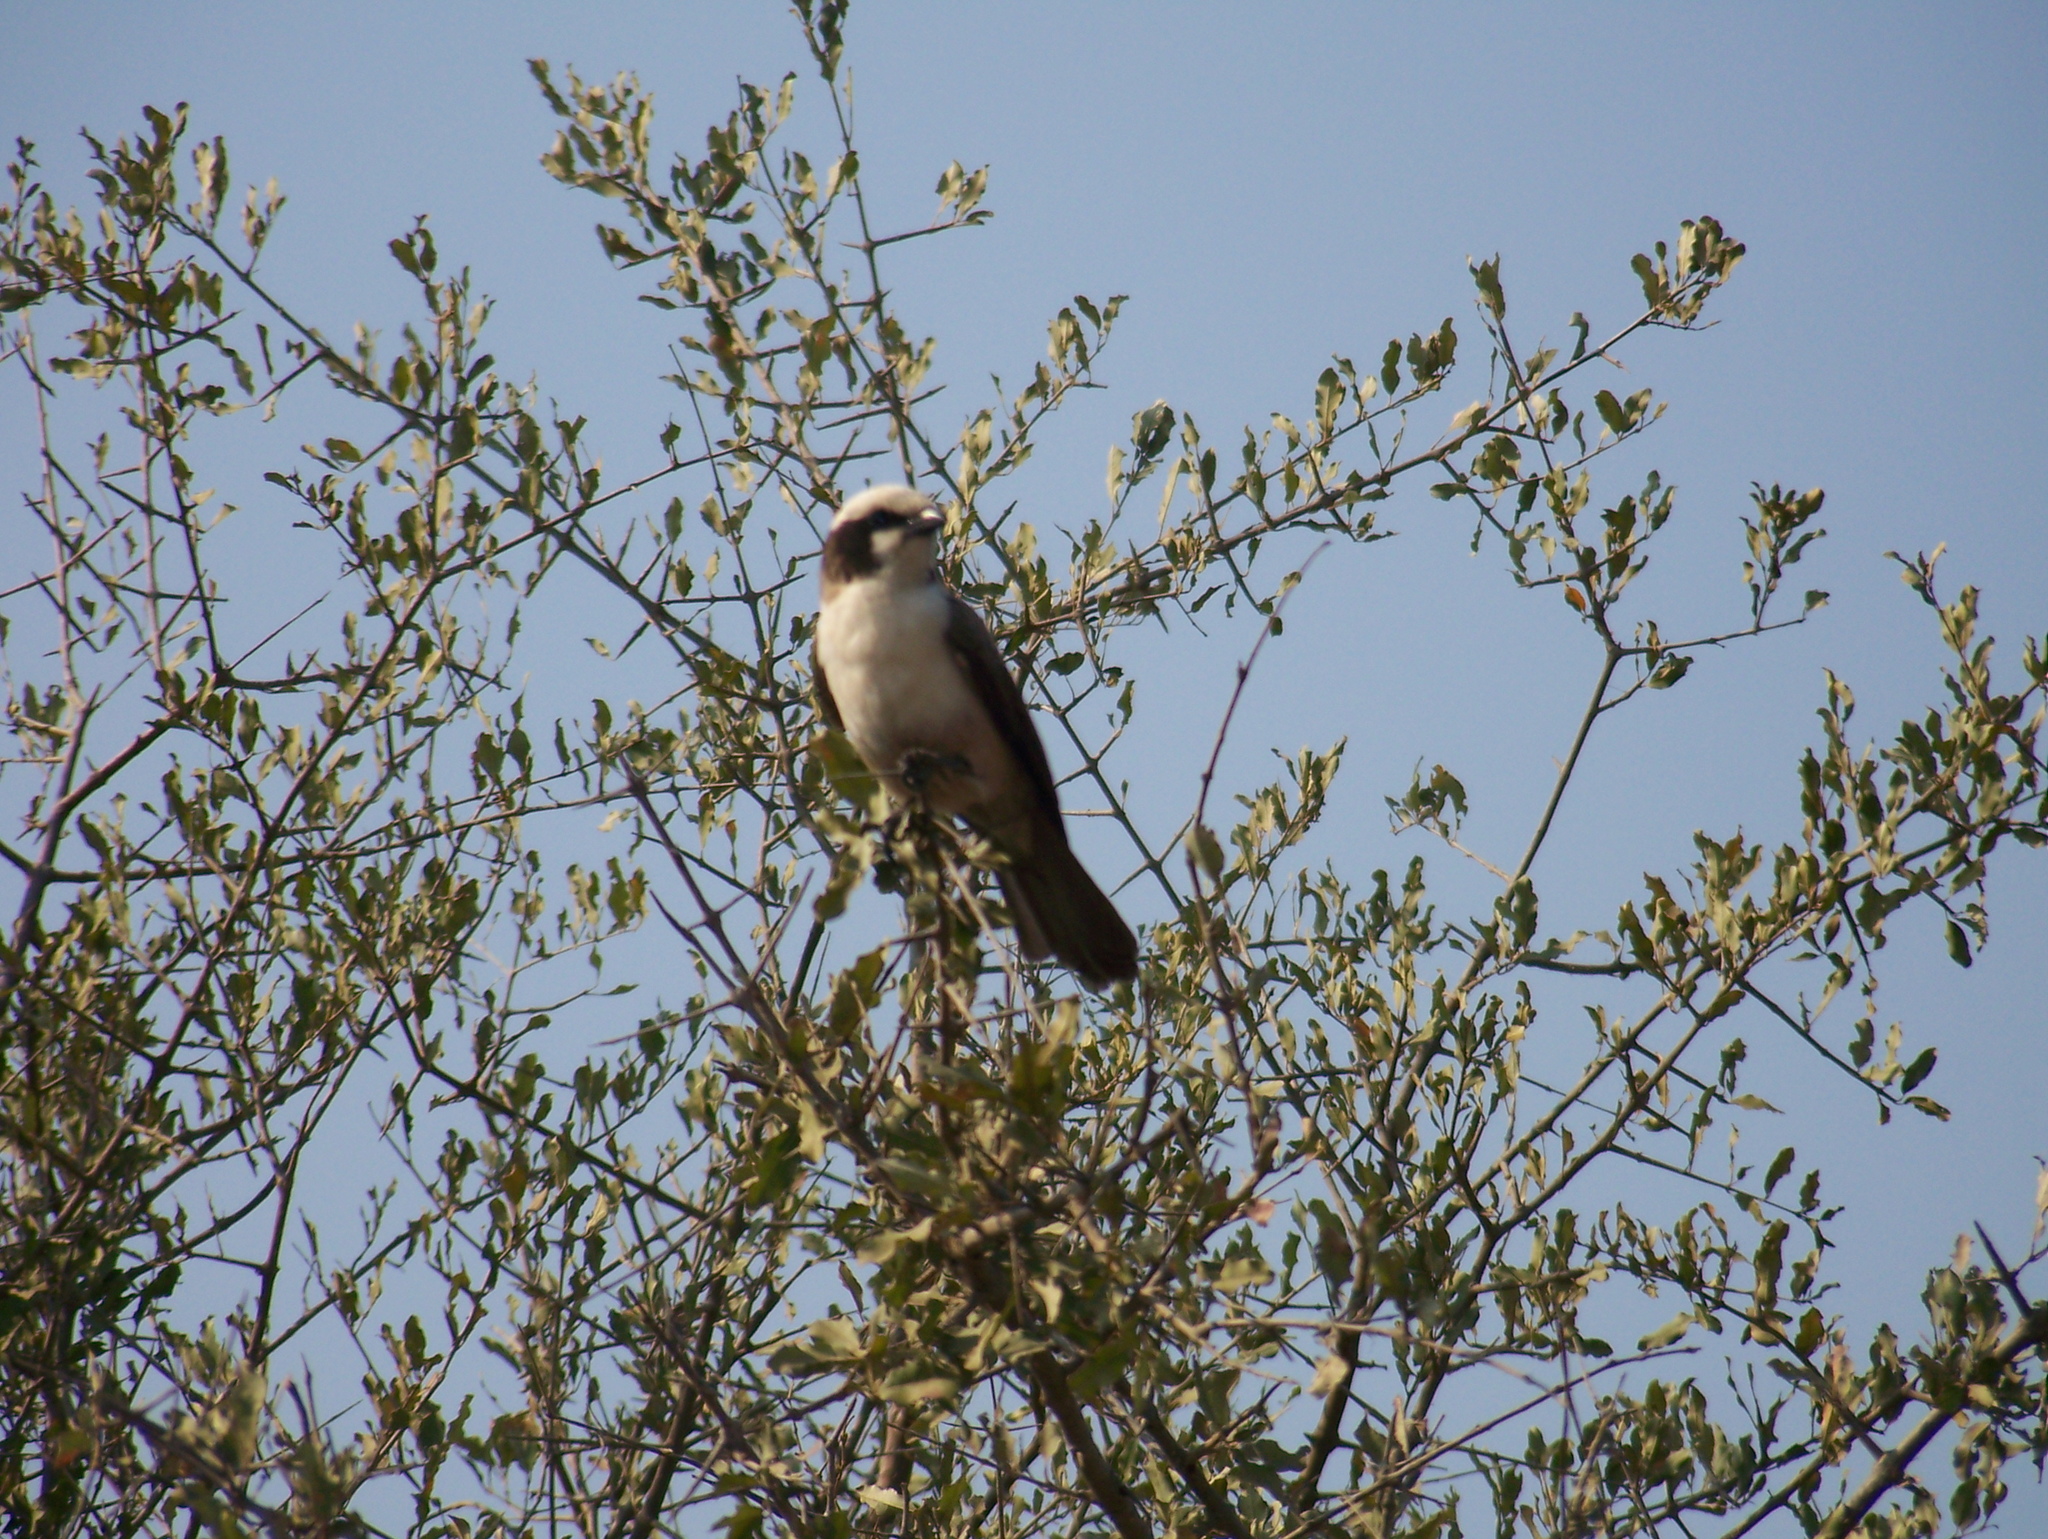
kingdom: Animalia
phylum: Chordata
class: Aves
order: Passeriformes
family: Laniidae
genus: Eurocephalus
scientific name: Eurocephalus anguitimens
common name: Southern white-crowned shrike
